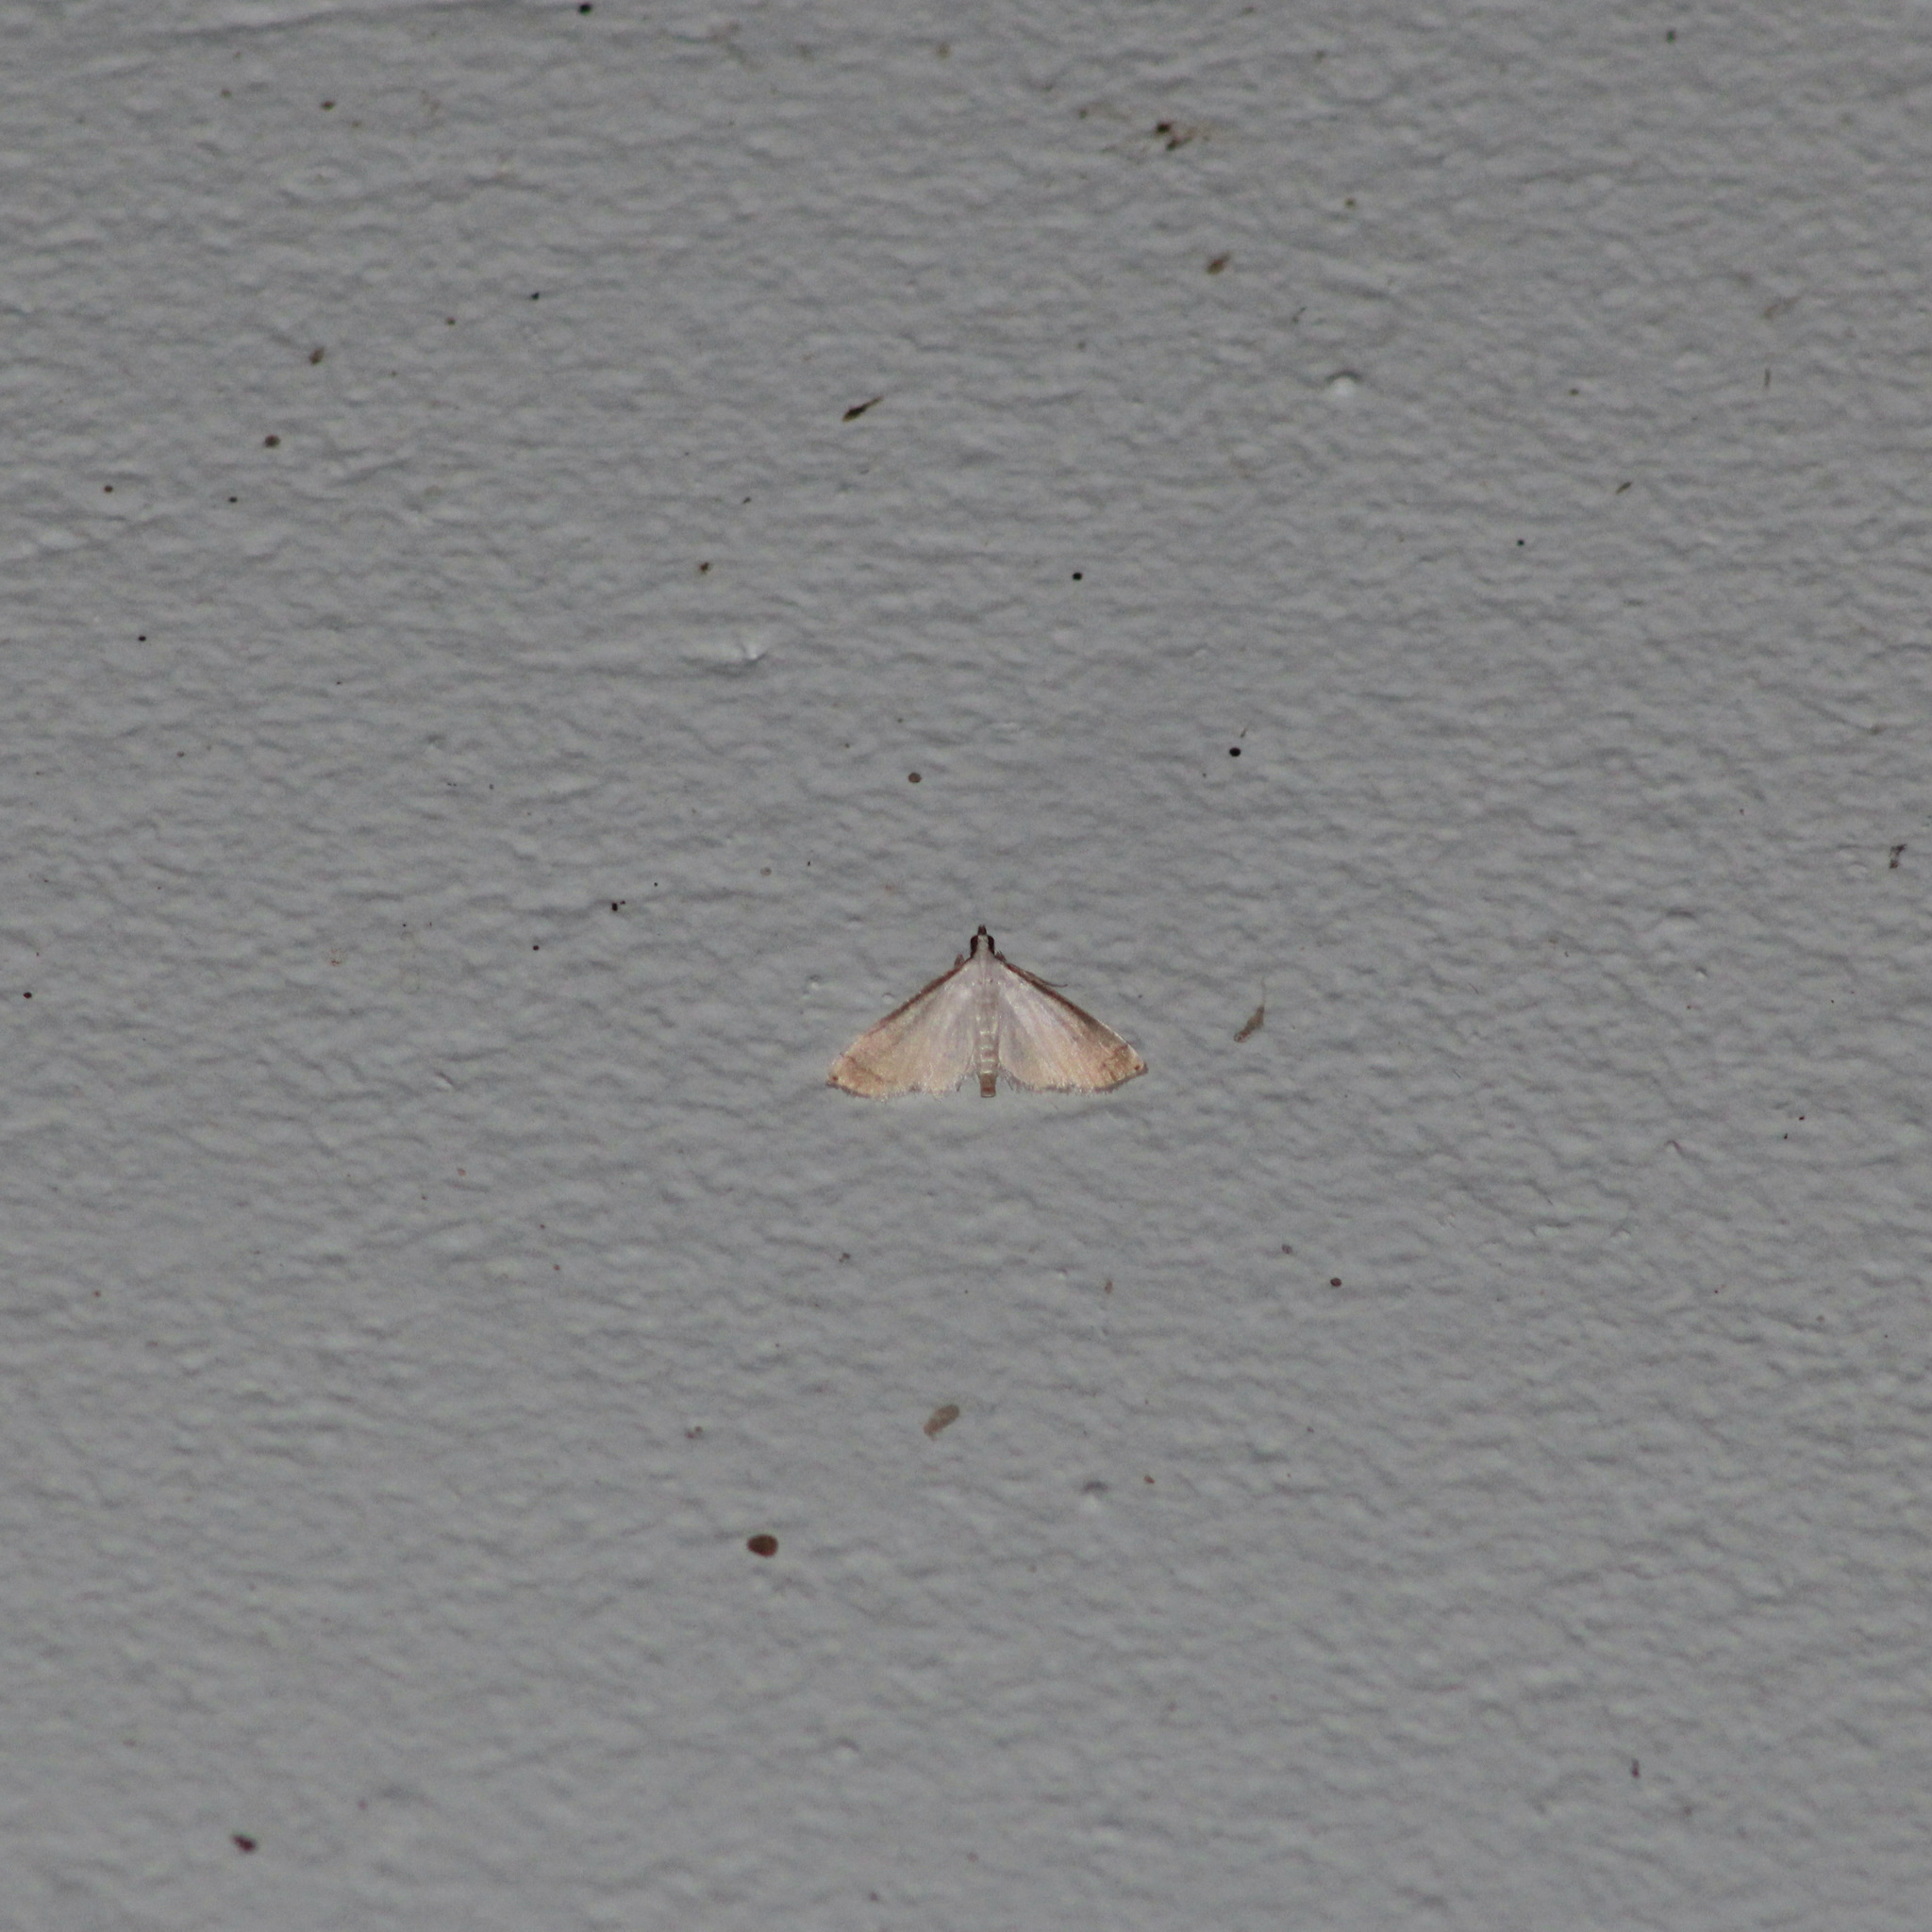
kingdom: Animalia
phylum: Arthropoda
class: Insecta
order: Lepidoptera
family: Crambidae
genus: Stenia
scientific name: Stenia saurialis
